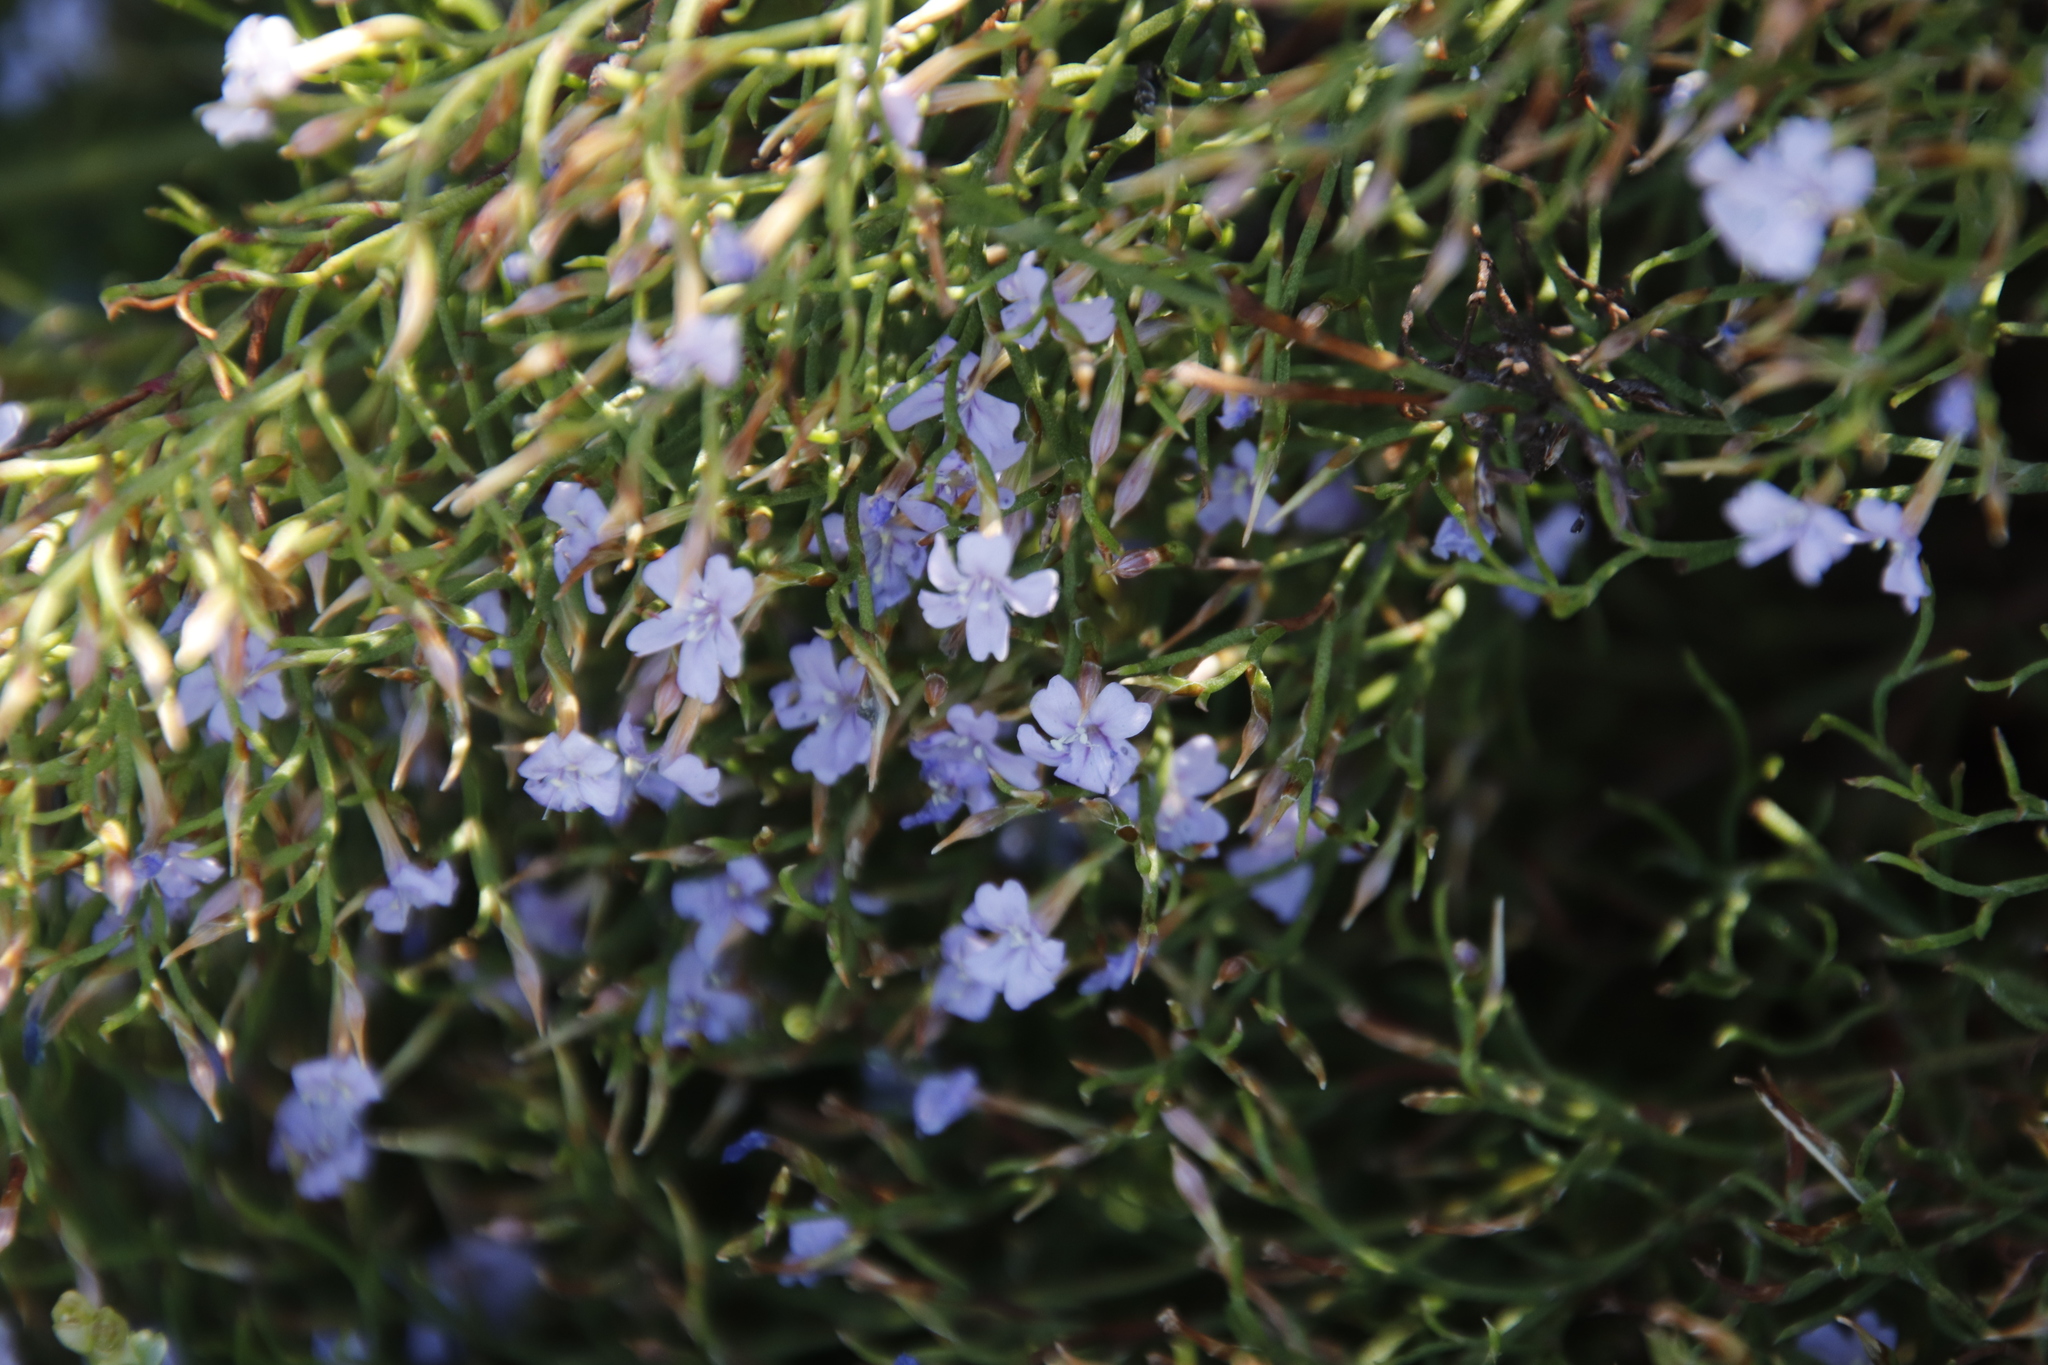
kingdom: Plantae
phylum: Tracheophyta
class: Magnoliopsida
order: Caryophyllales
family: Plumbaginaceae
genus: Limonium
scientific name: Limonium scabrum
